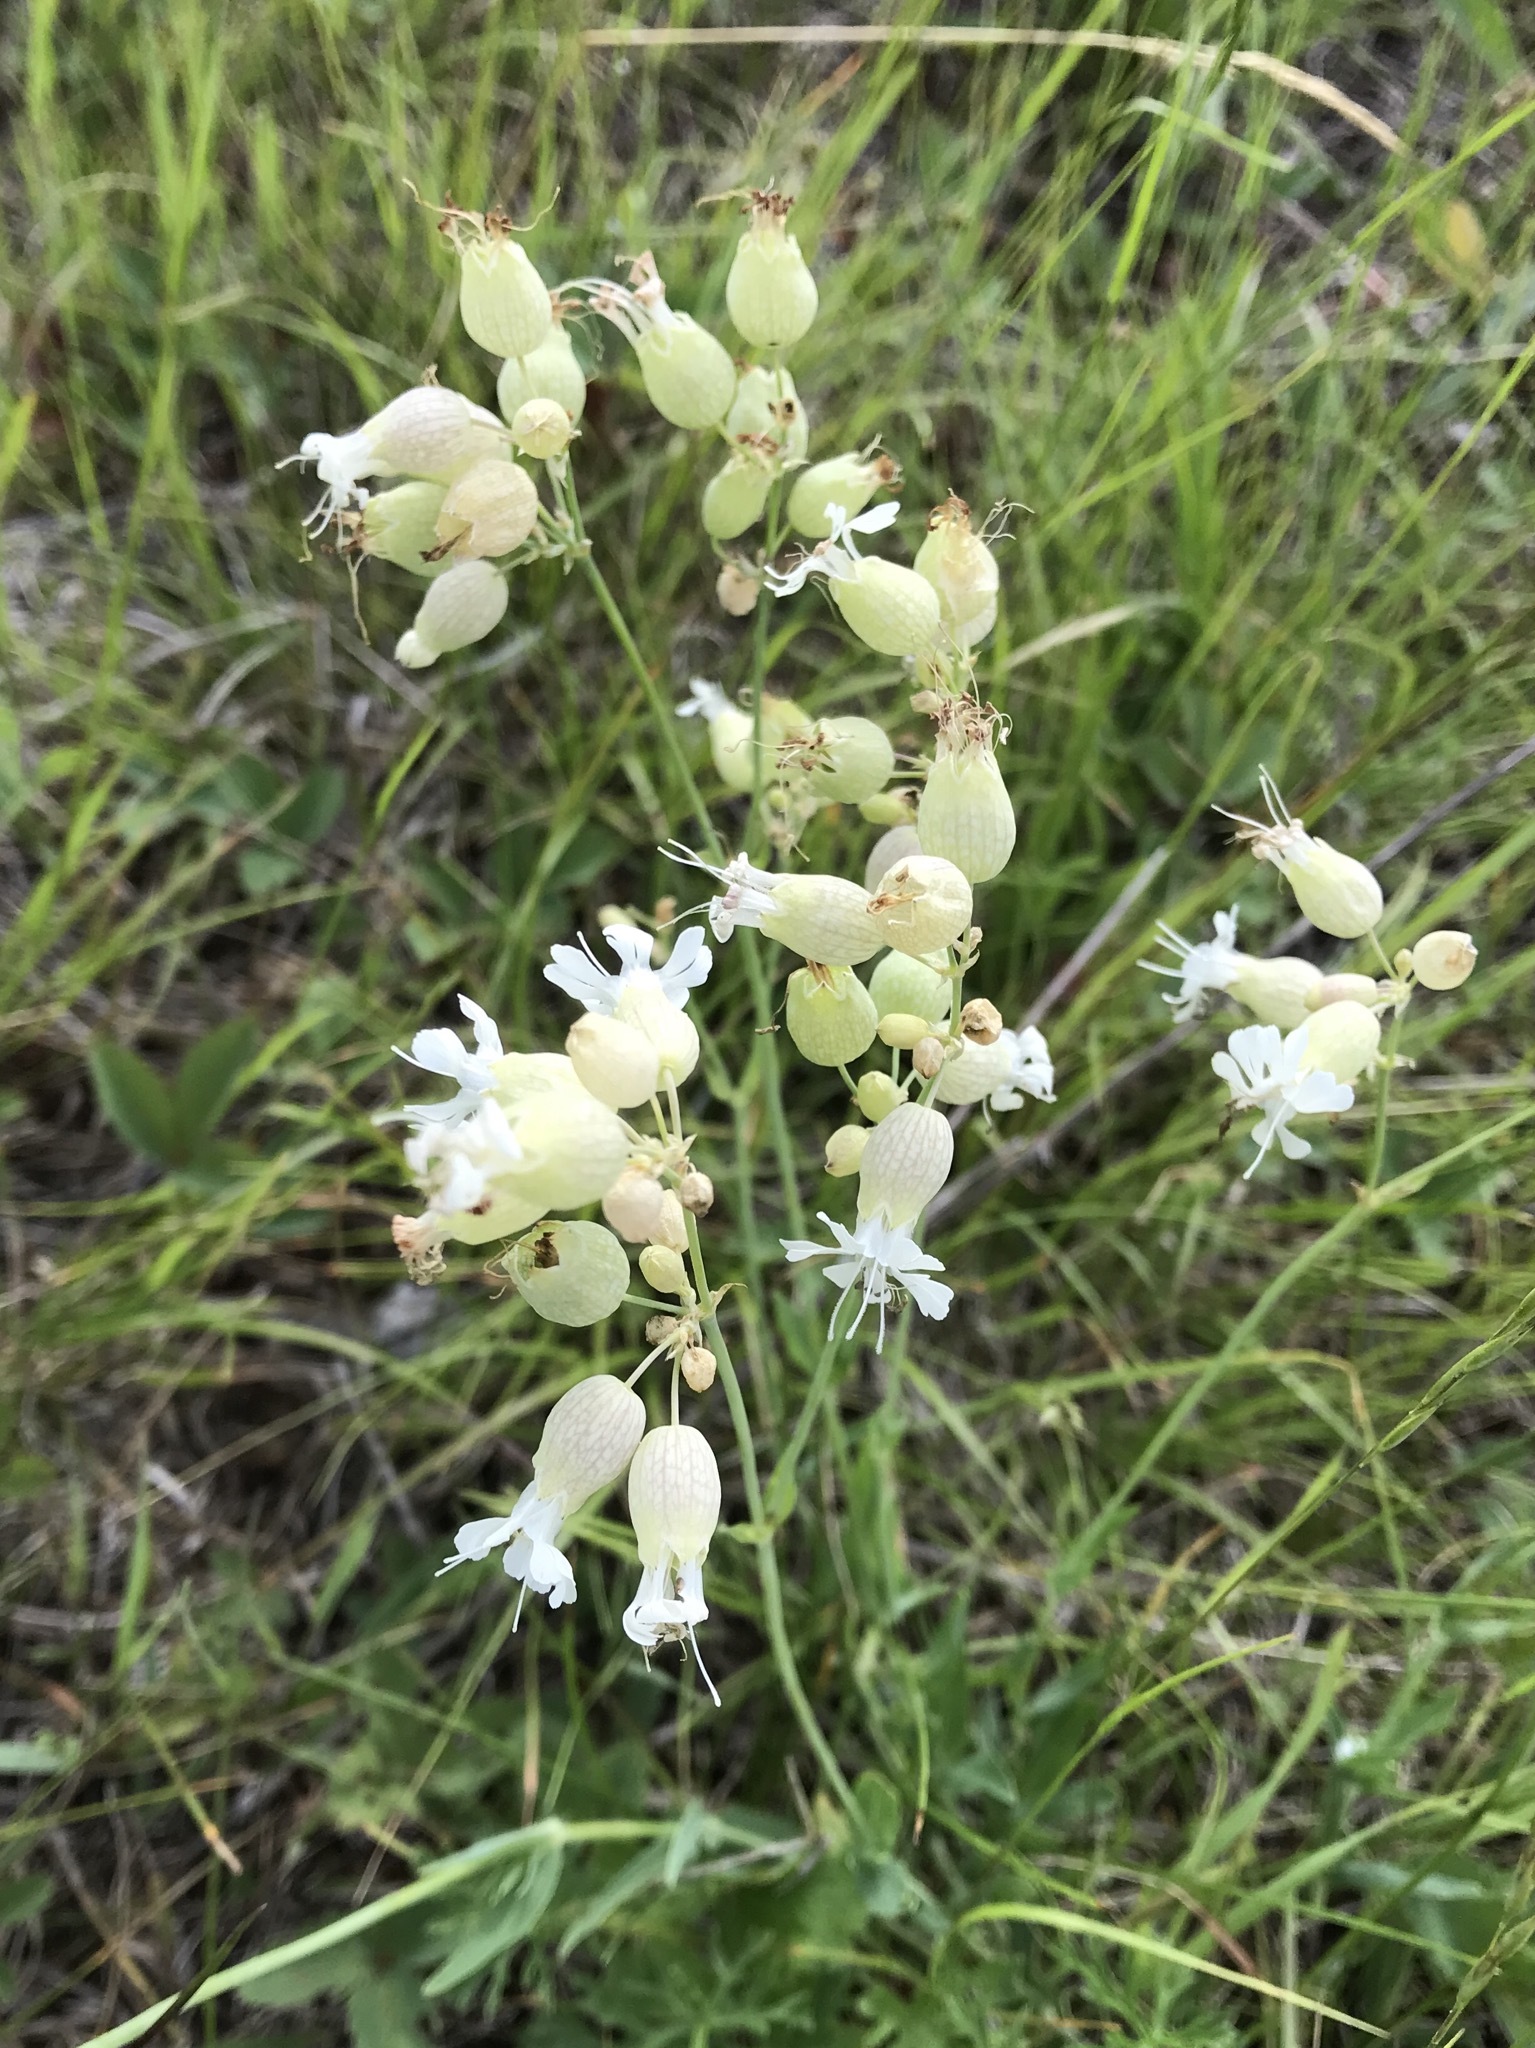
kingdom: Plantae
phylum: Tracheophyta
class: Magnoliopsida
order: Caryophyllales
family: Caryophyllaceae
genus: Silene
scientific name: Silene vulgaris
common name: Bladder campion
